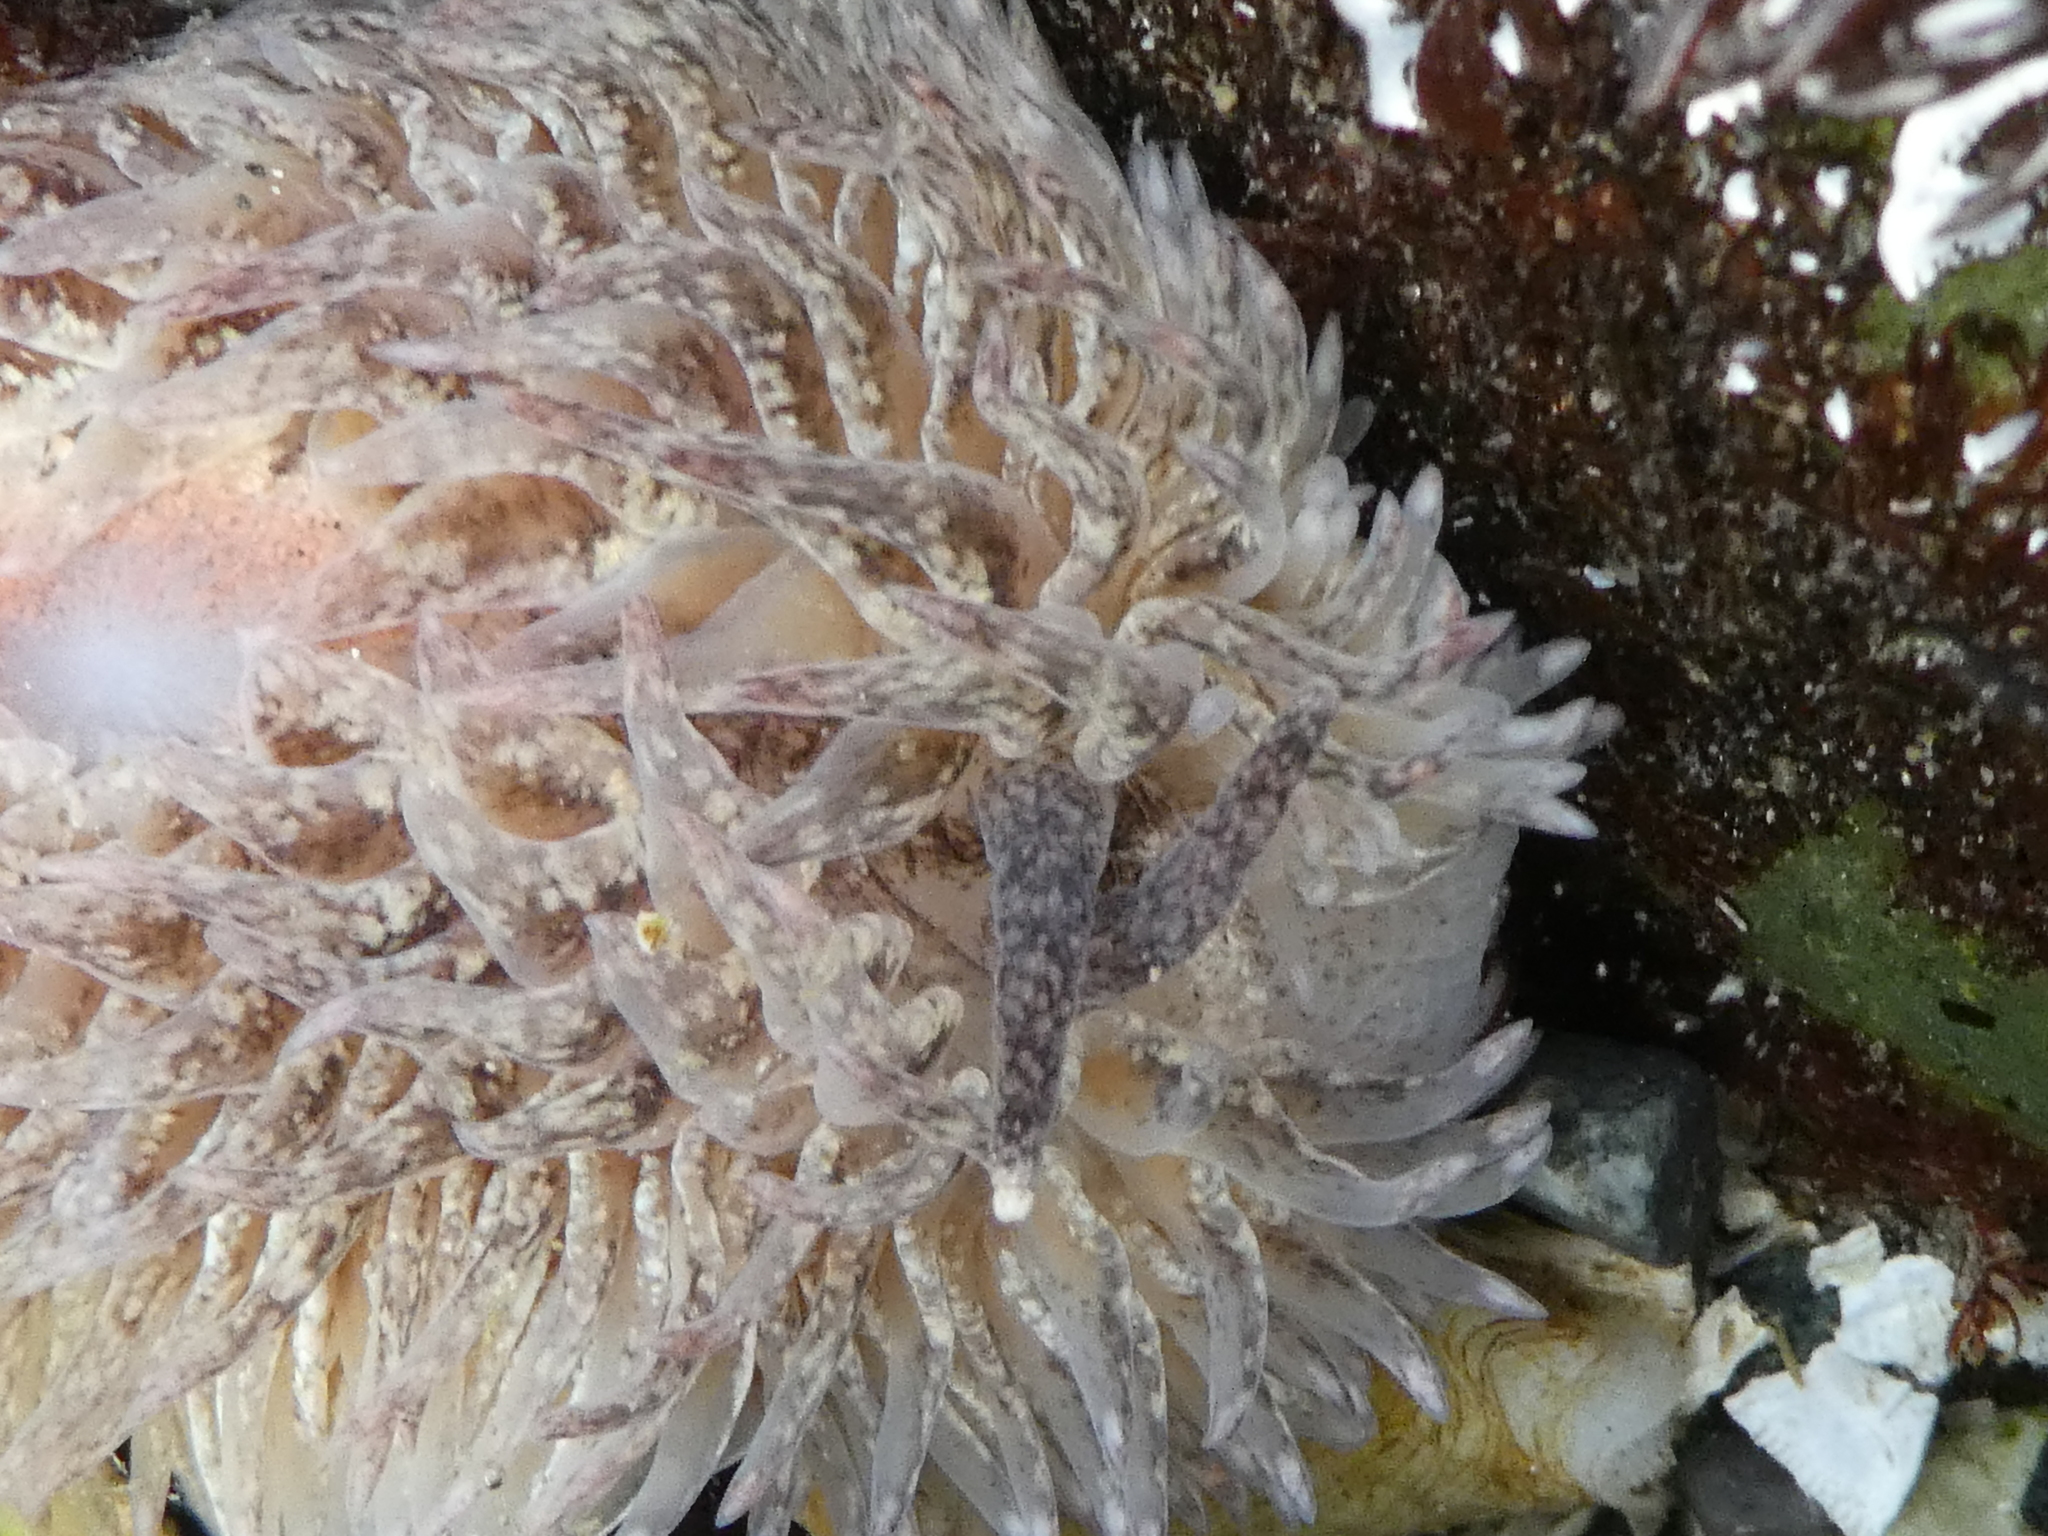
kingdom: Animalia
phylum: Mollusca
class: Gastropoda
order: Nudibranchia
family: Aeolidiidae
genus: Aeolidia
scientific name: Aeolidia loui
